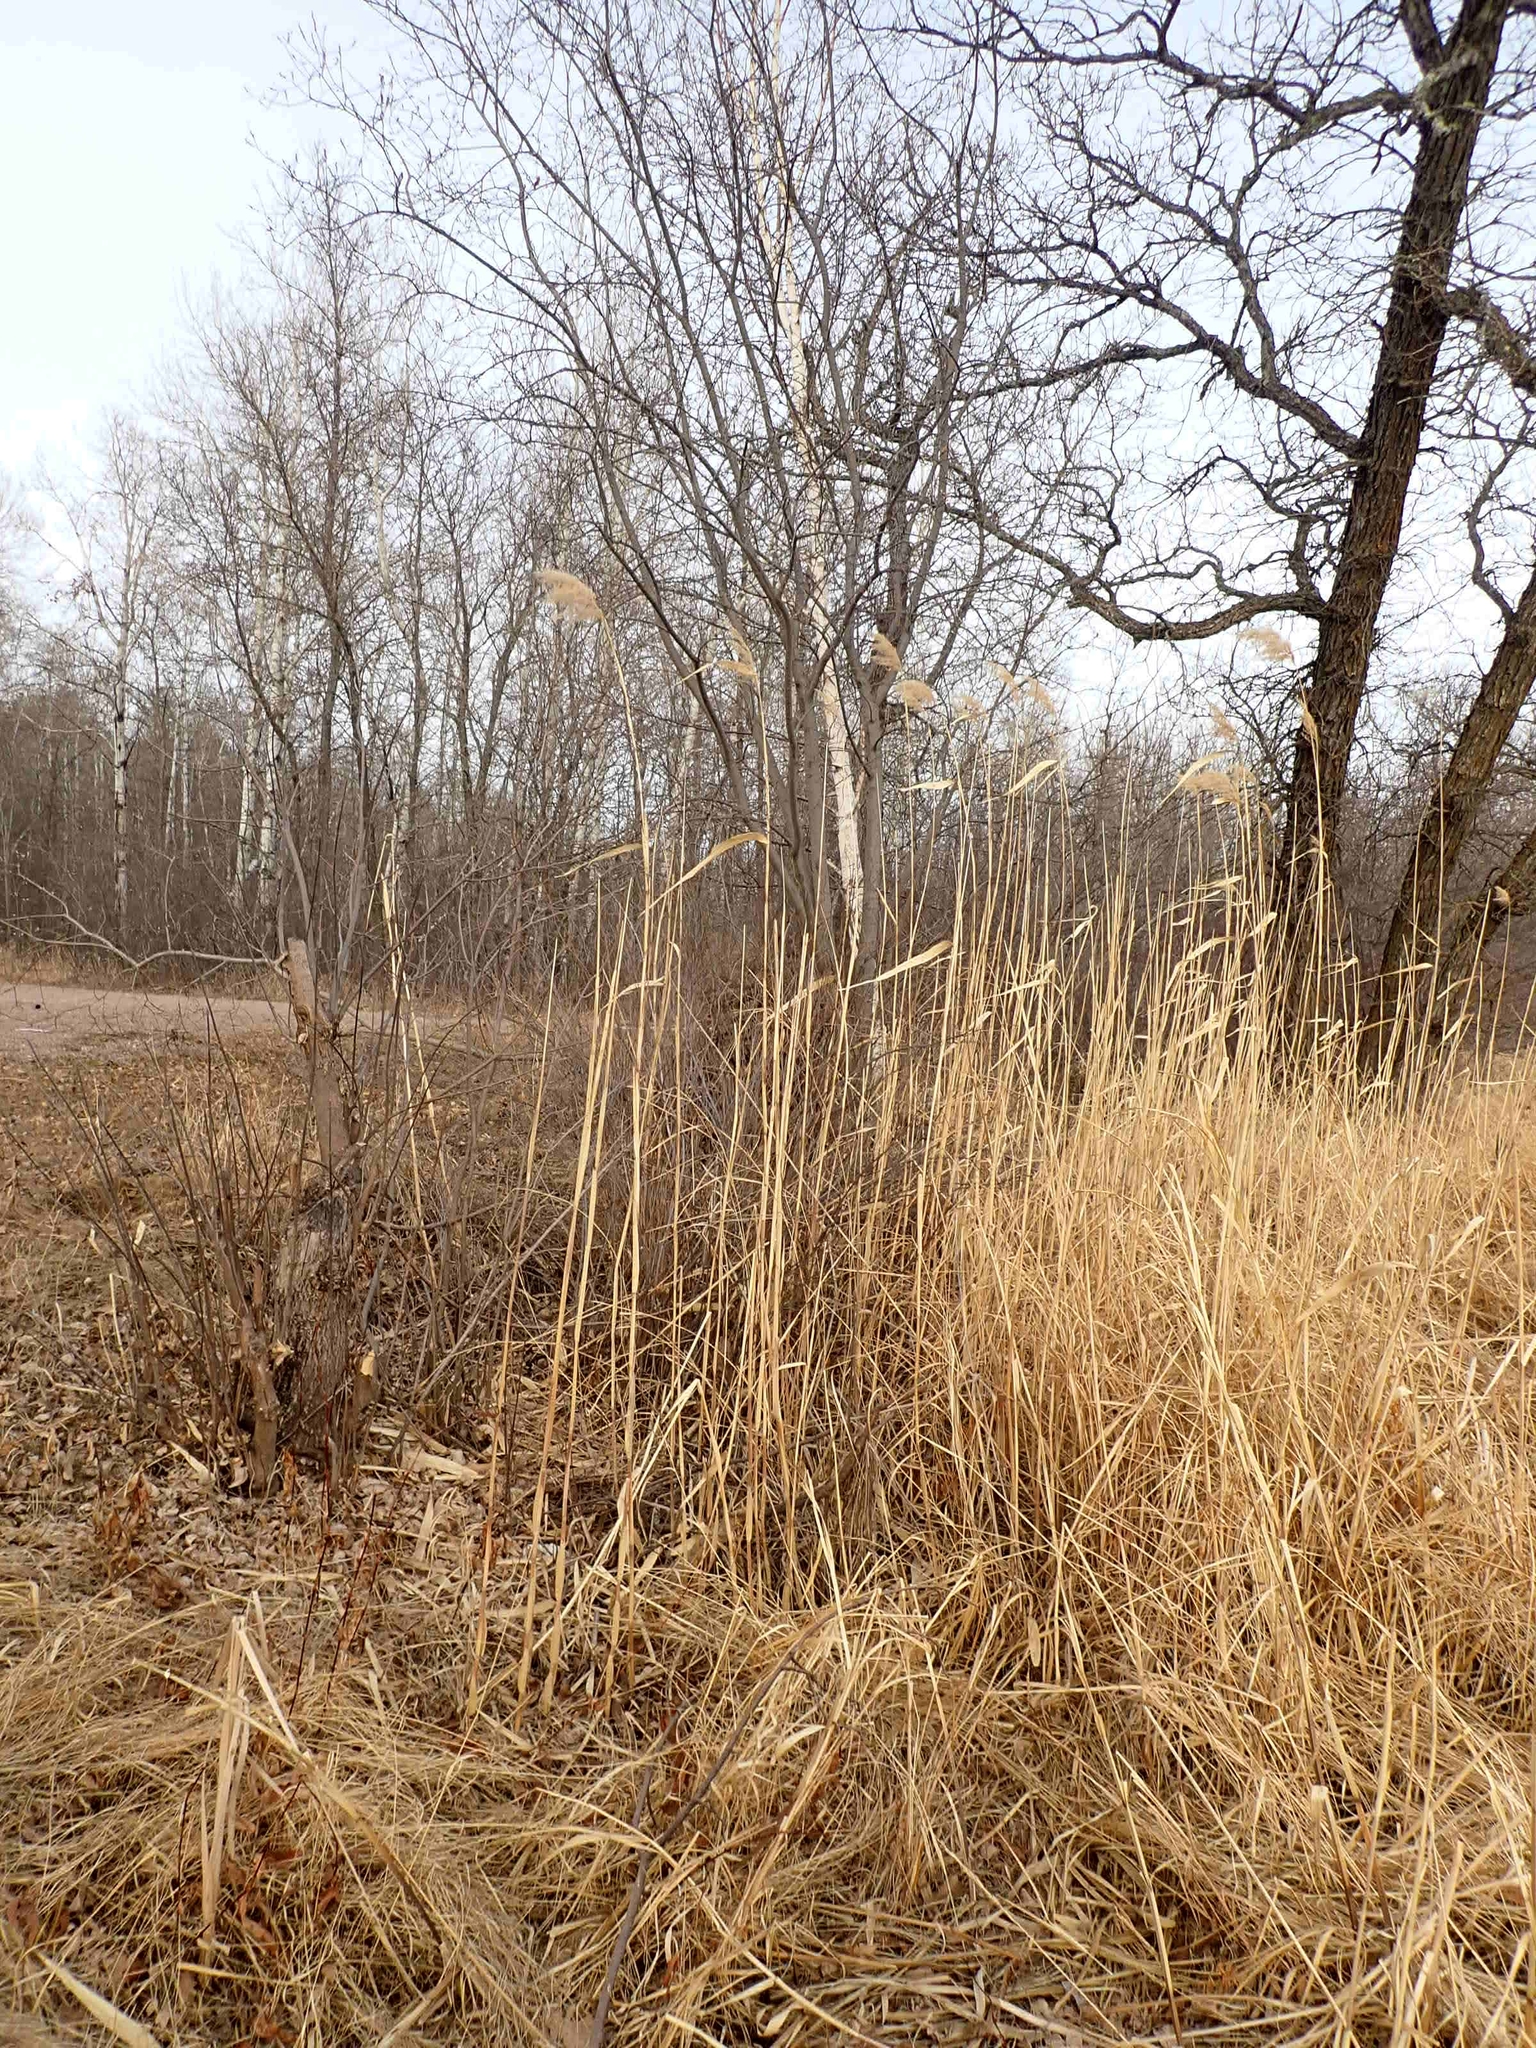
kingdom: Plantae
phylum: Tracheophyta
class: Liliopsida
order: Poales
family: Poaceae
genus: Phragmites
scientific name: Phragmites australis
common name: Common reed
